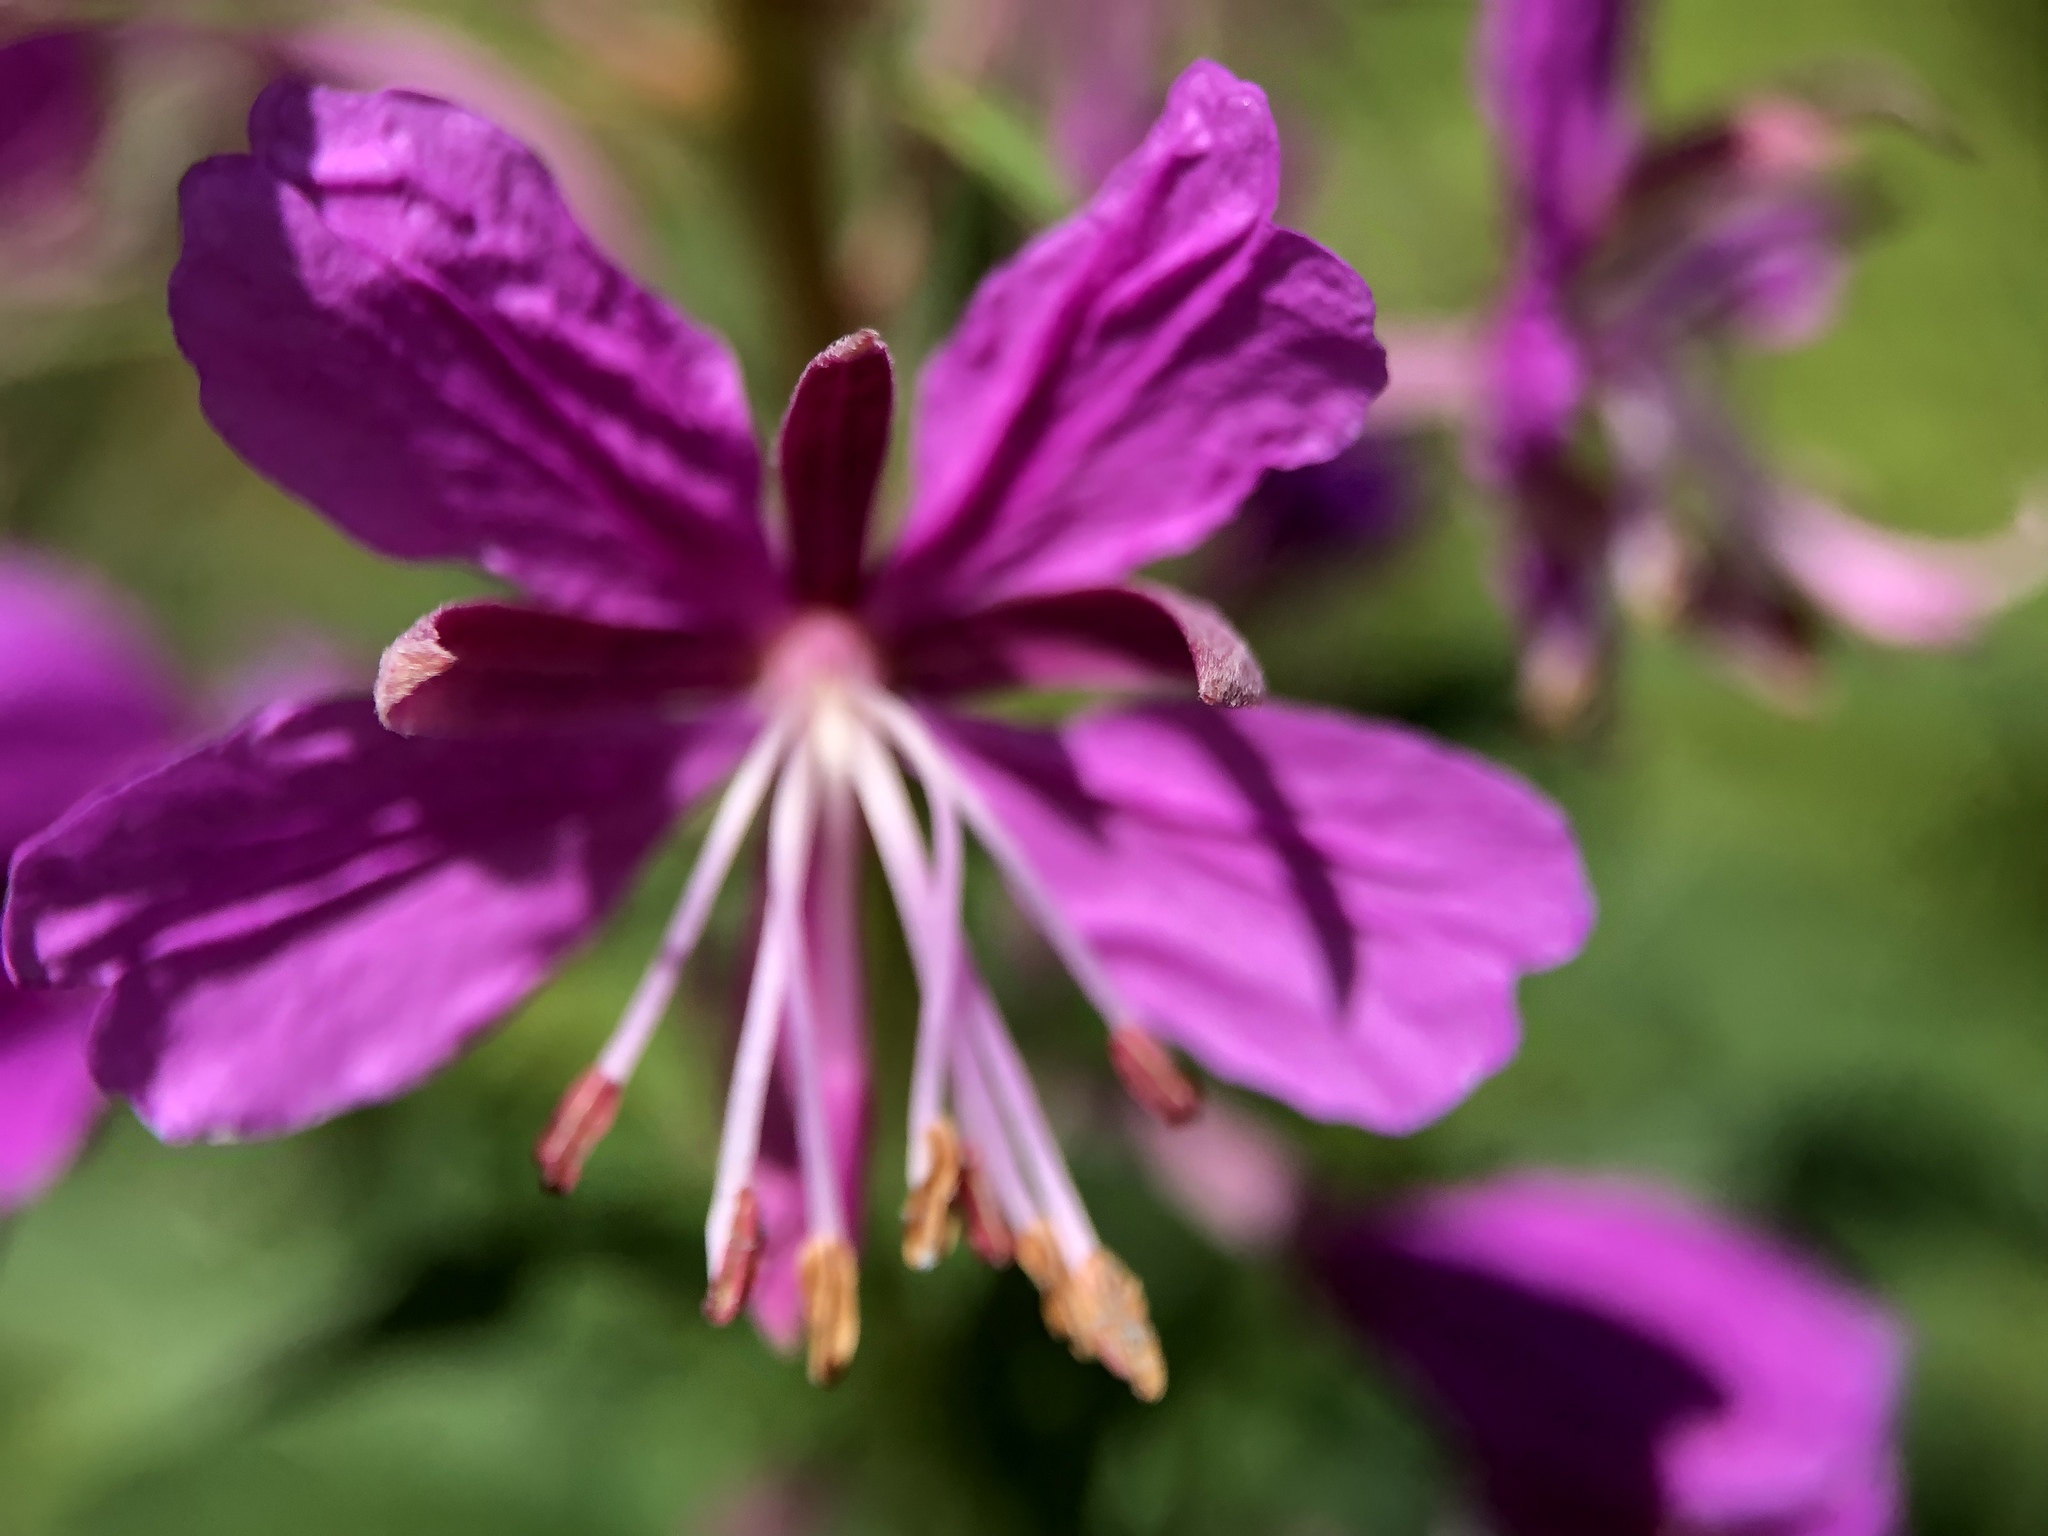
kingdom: Plantae
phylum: Tracheophyta
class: Magnoliopsida
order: Myrtales
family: Onagraceae
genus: Chamaenerion
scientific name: Chamaenerion angustifolium
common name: Fireweed
